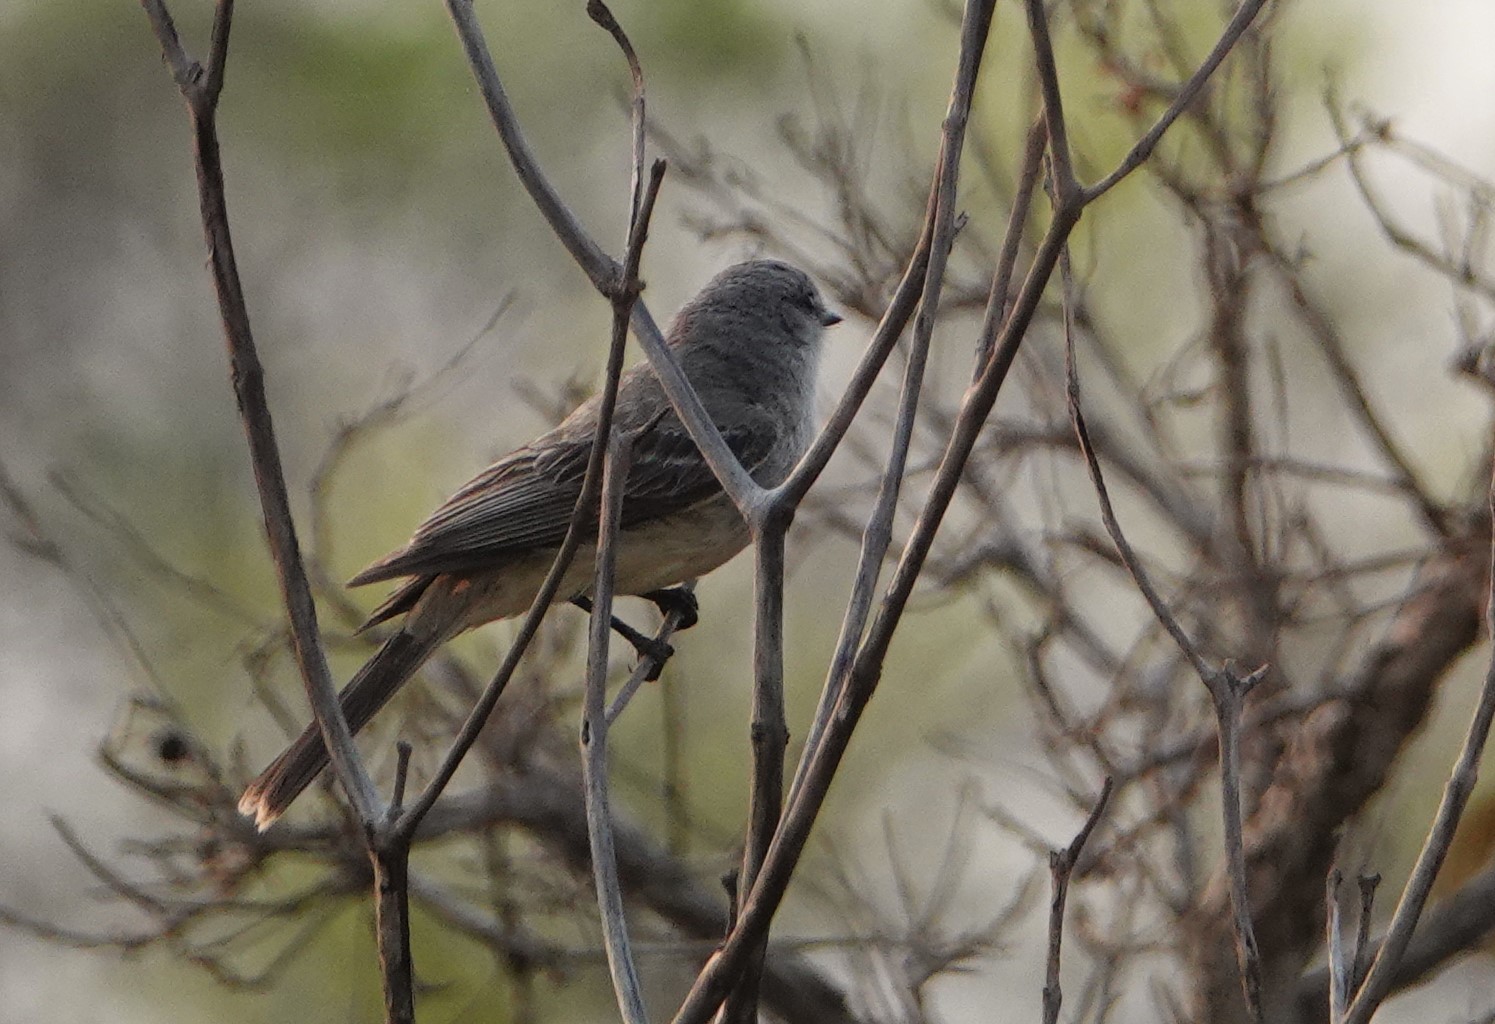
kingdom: Animalia
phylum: Chordata
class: Aves
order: Passeriformes
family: Tyrannidae
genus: Suiriri
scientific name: Suiriri suiriri
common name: Suiriri flycatcher
